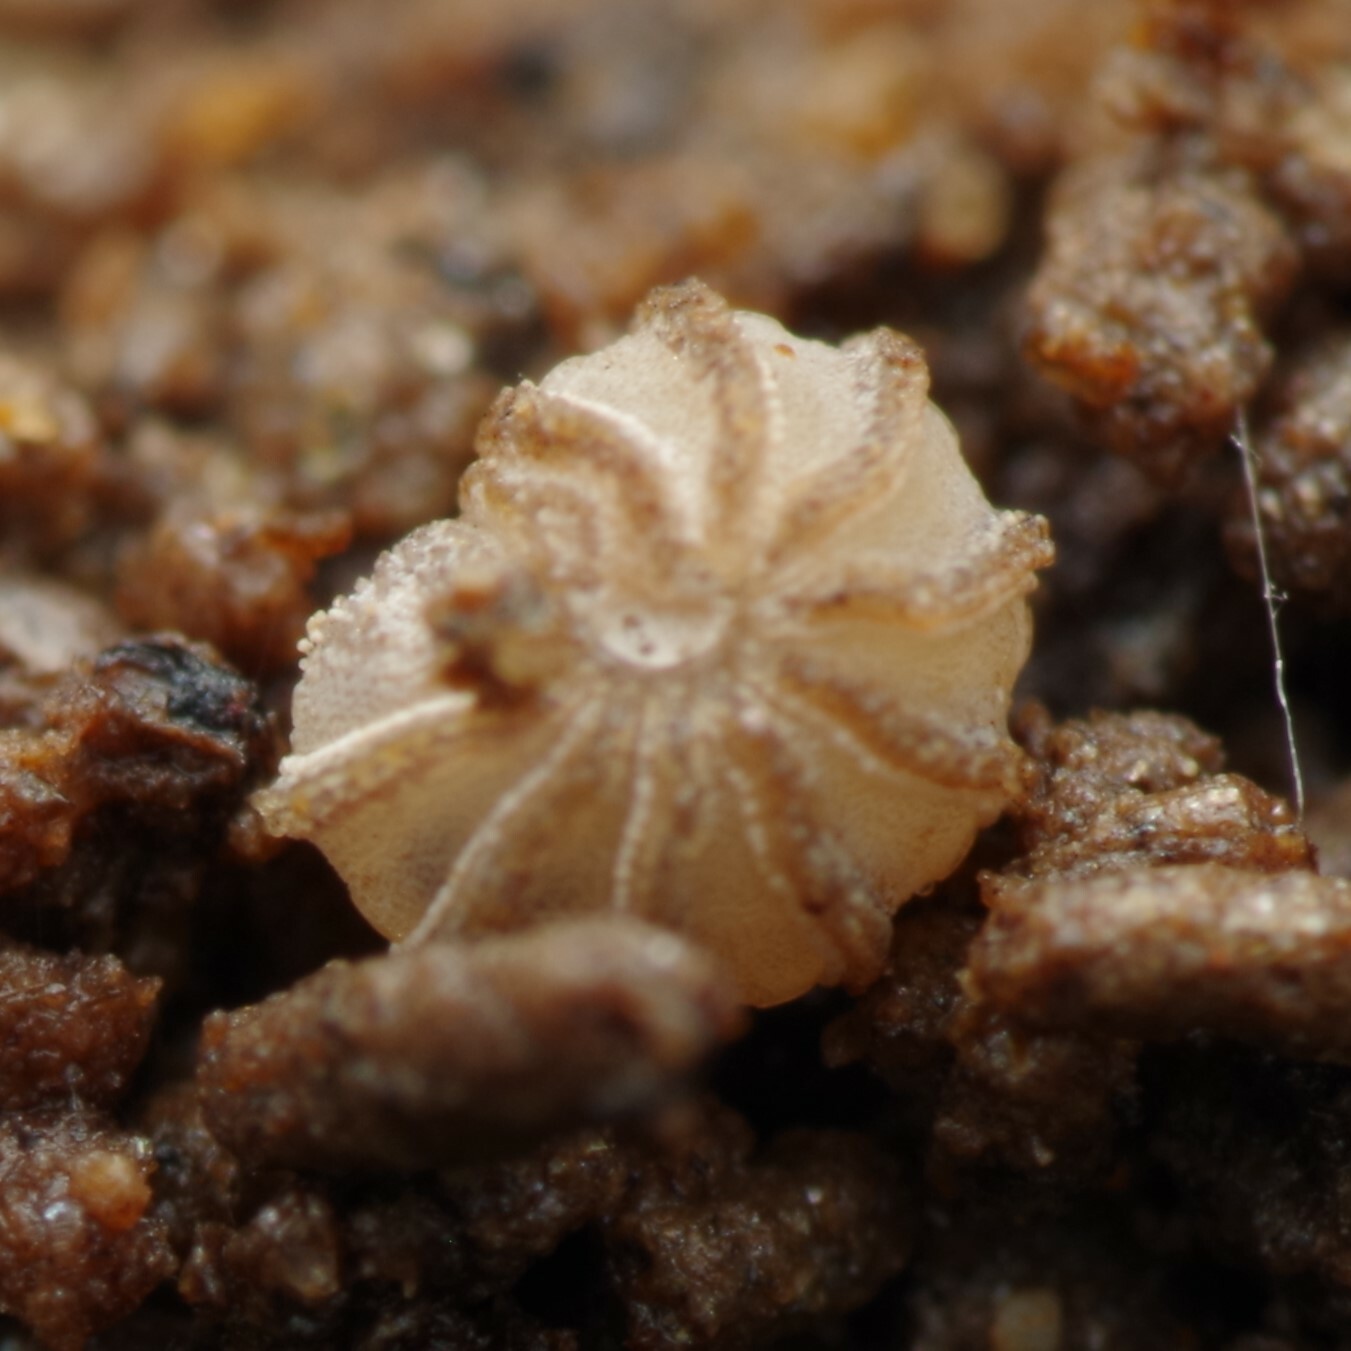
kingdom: Animalia
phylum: Arthropoda
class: Diplopoda
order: Glomerida
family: Glomeridae
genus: Trachysphaera
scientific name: Trachysphaera lobata
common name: Sand pill-millipede
